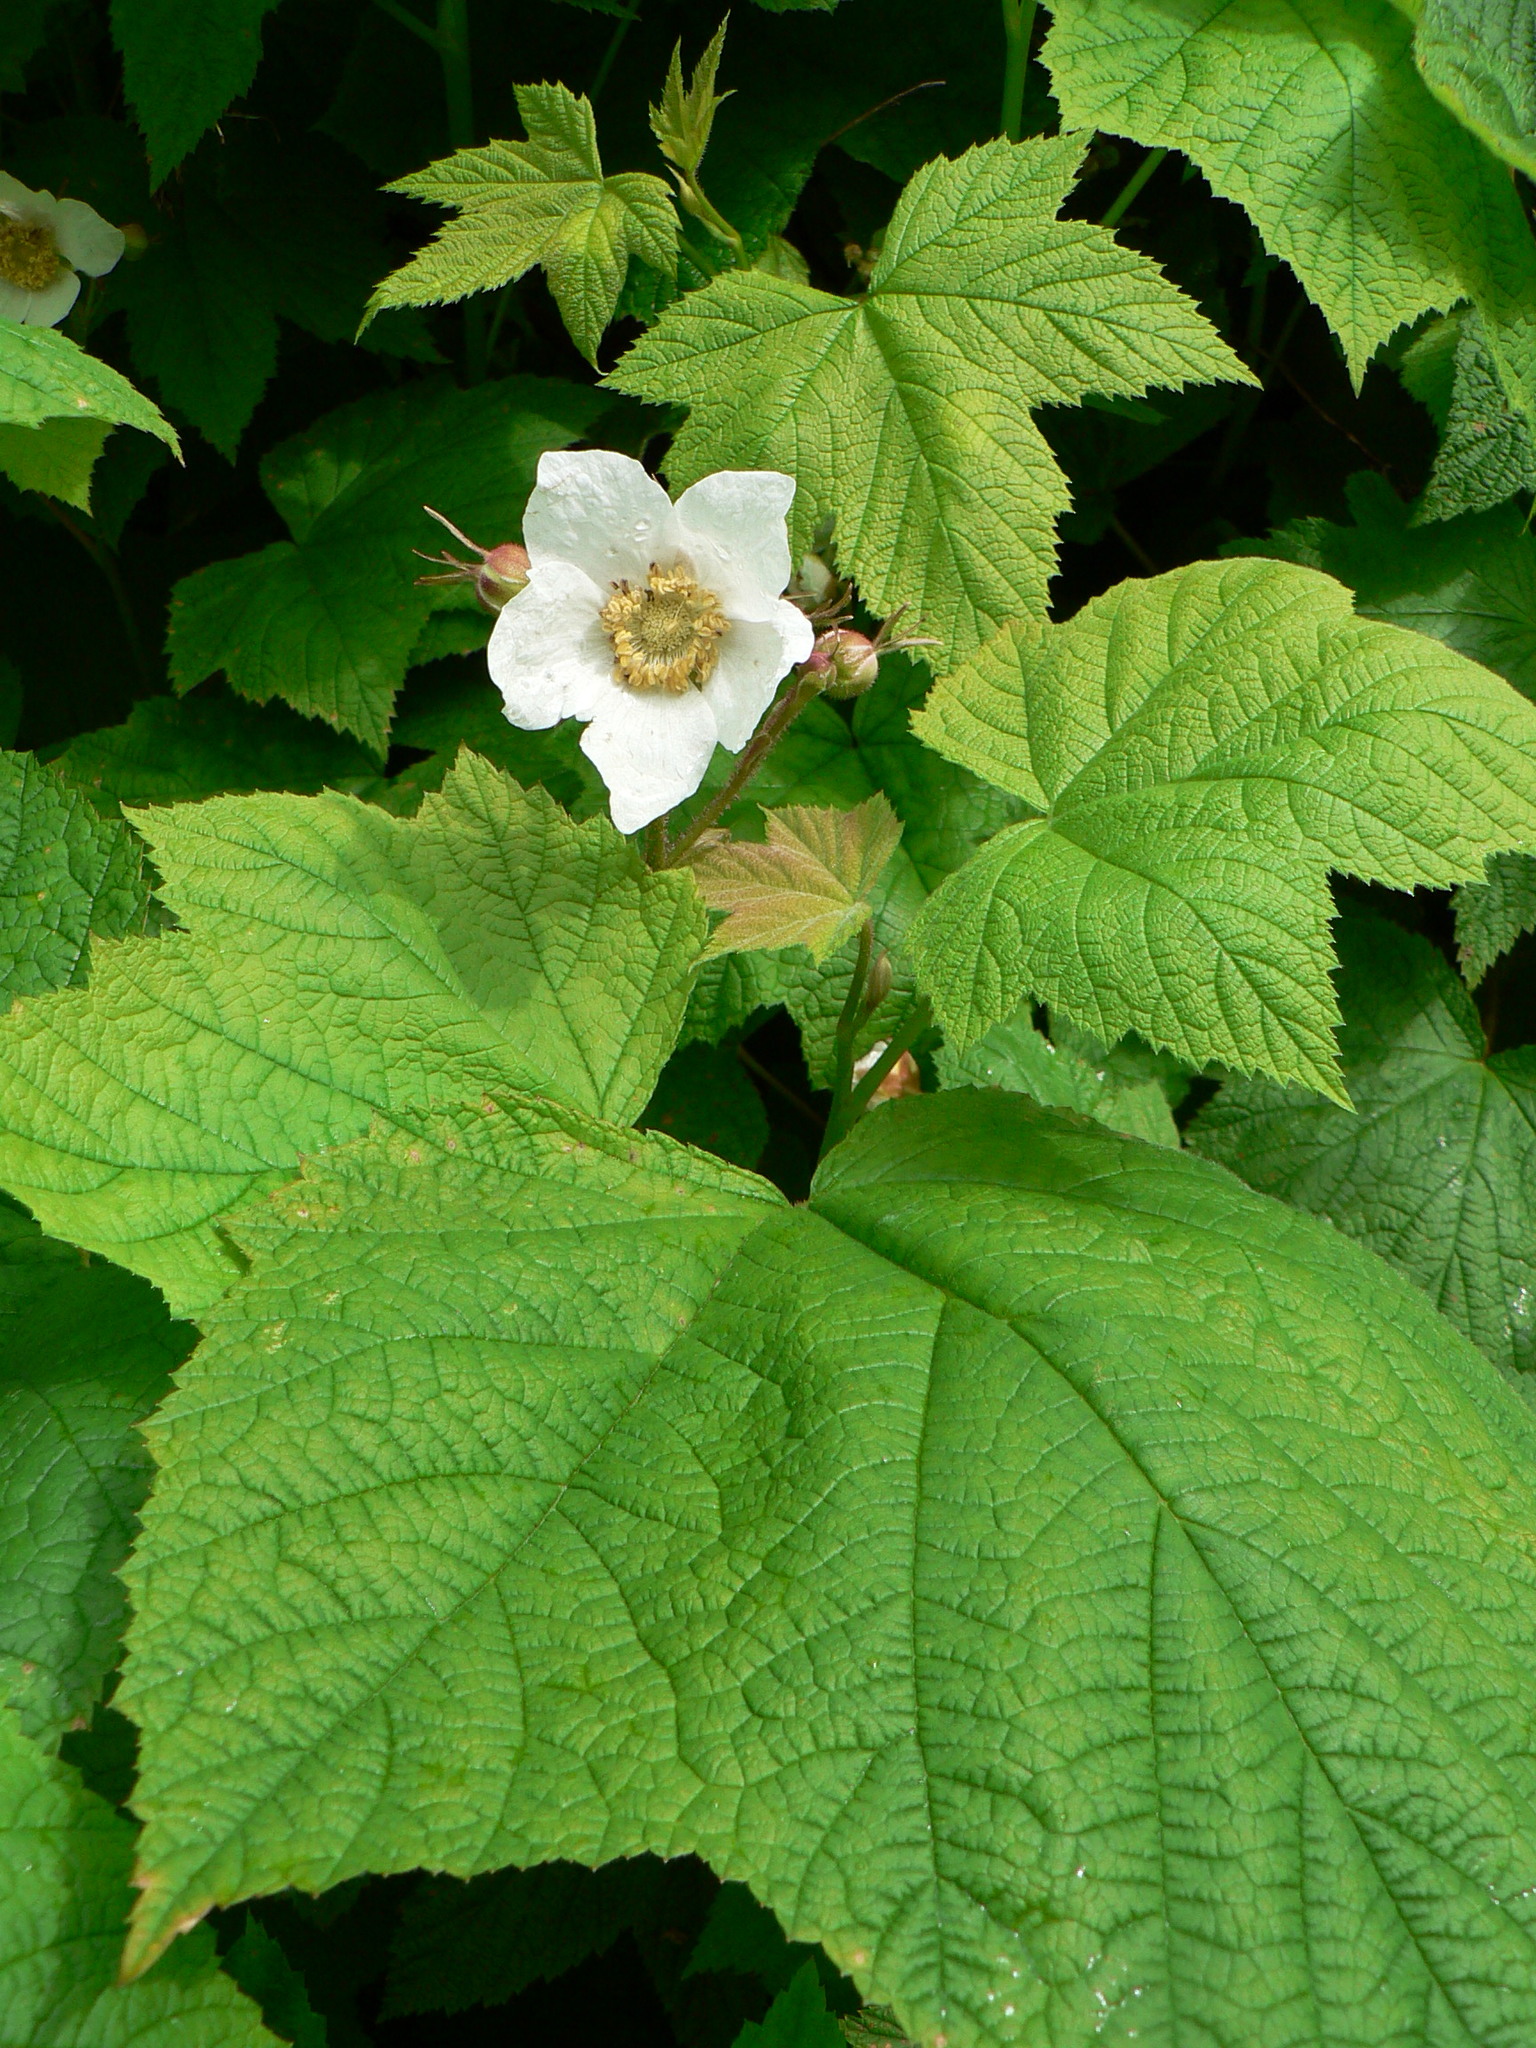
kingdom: Plantae
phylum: Tracheophyta
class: Magnoliopsida
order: Rosales
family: Rosaceae
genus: Rubus
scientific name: Rubus parviflorus
